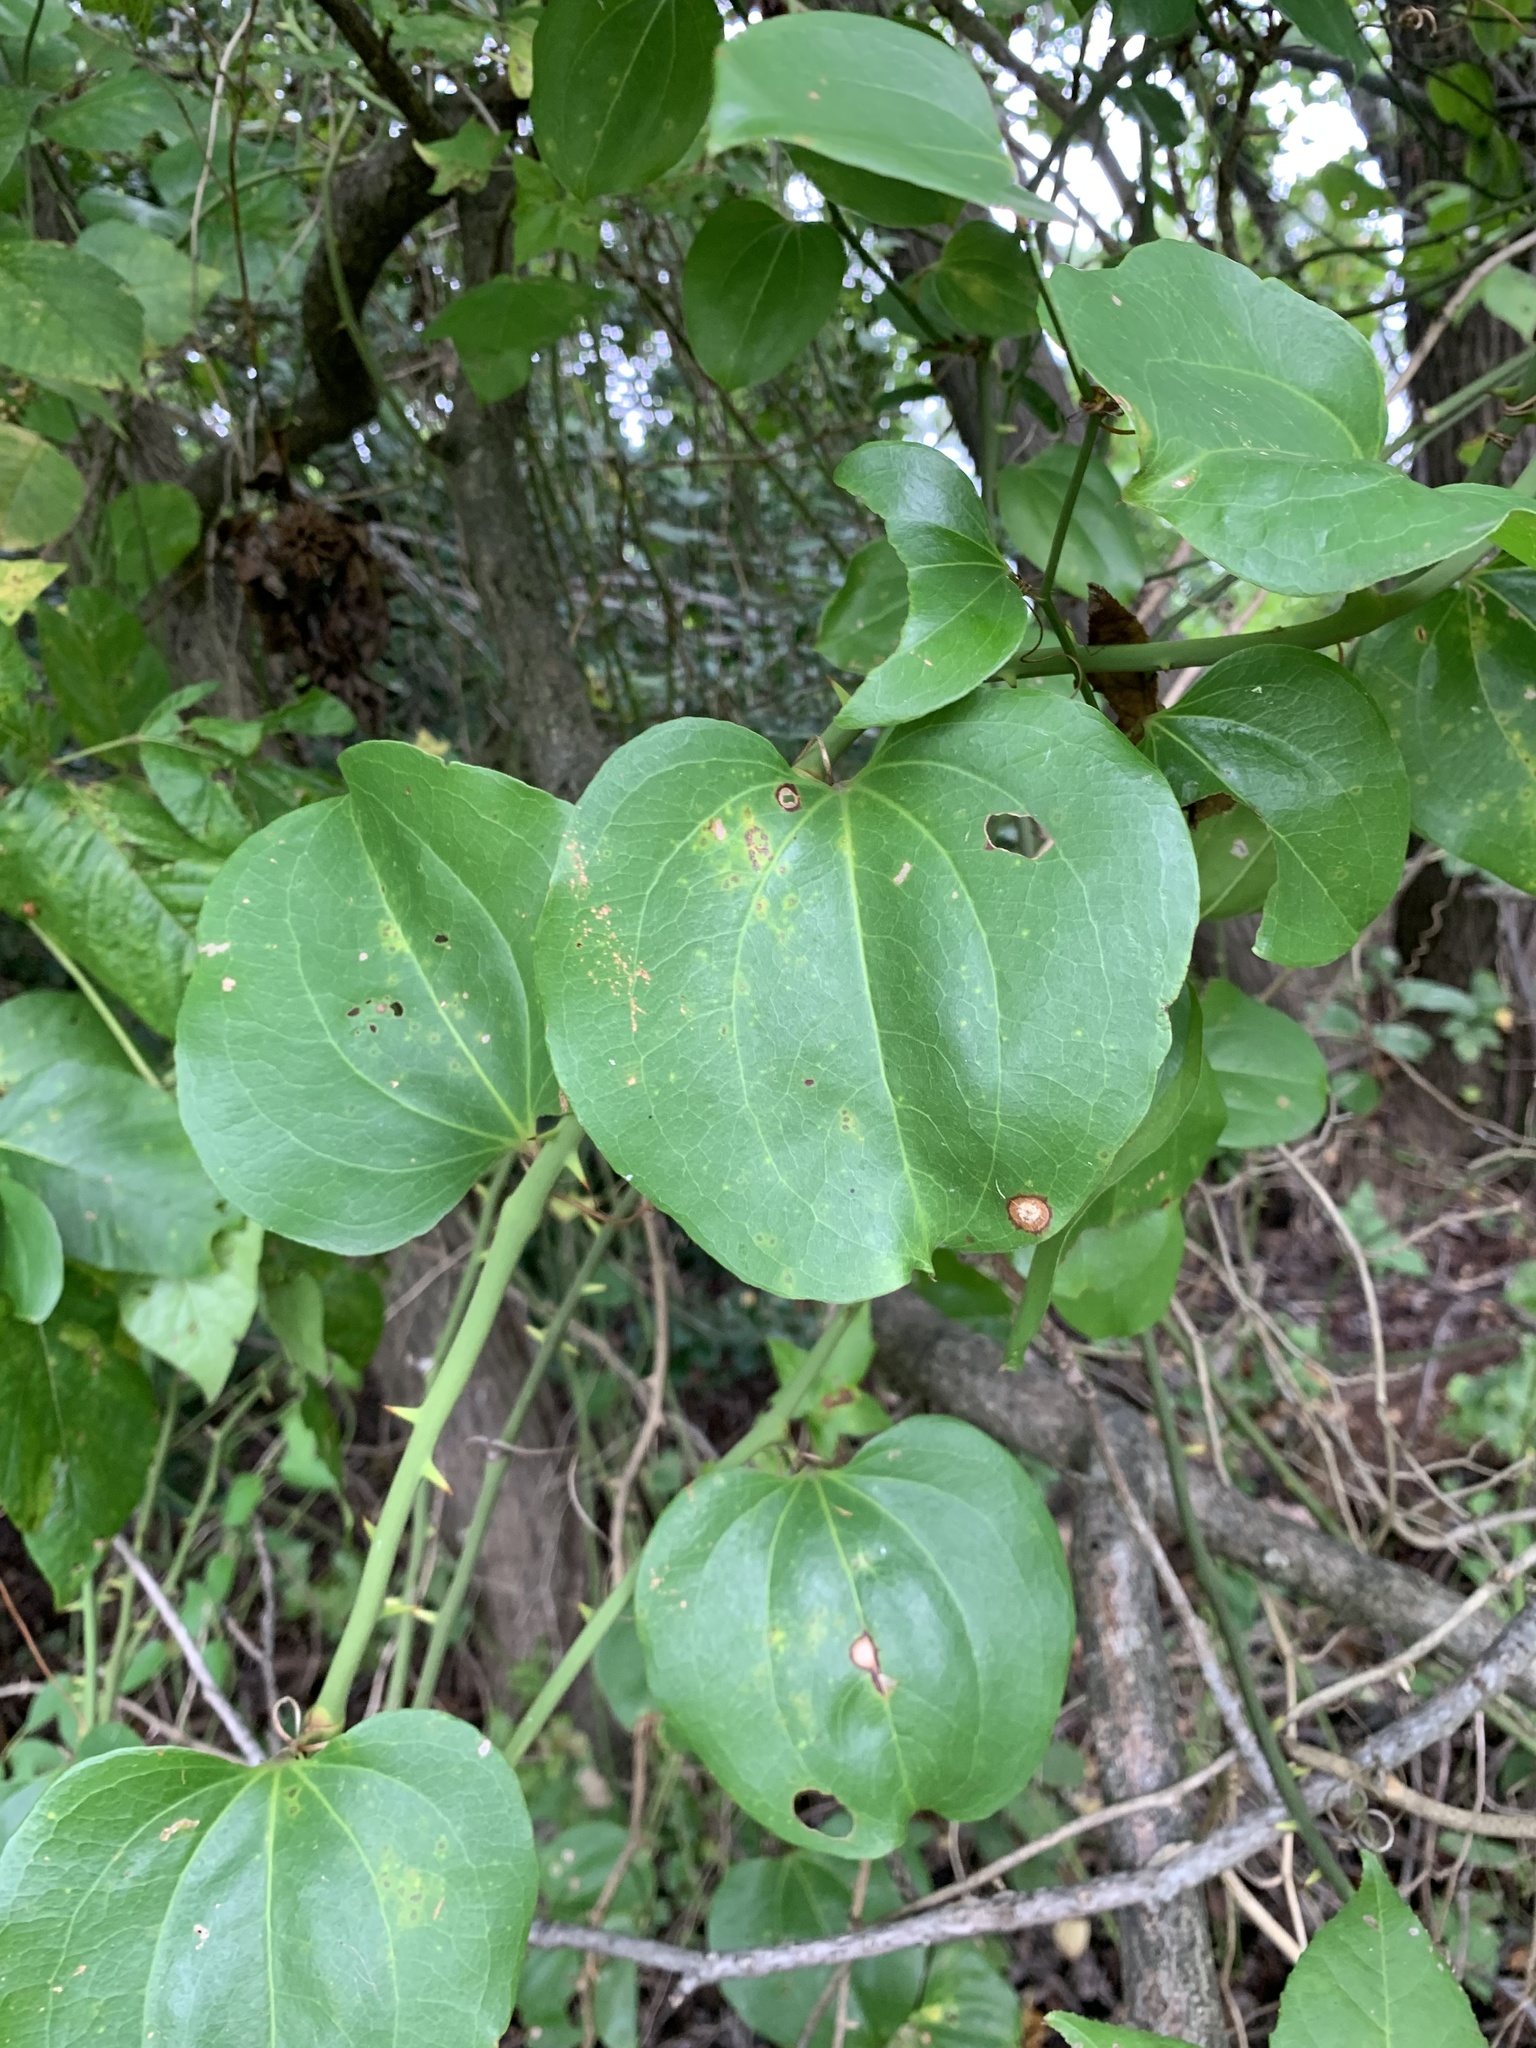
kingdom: Plantae
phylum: Tracheophyta
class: Liliopsida
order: Liliales
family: Smilacaceae
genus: Smilax
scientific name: Smilax rotundifolia
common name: Bullbriar
